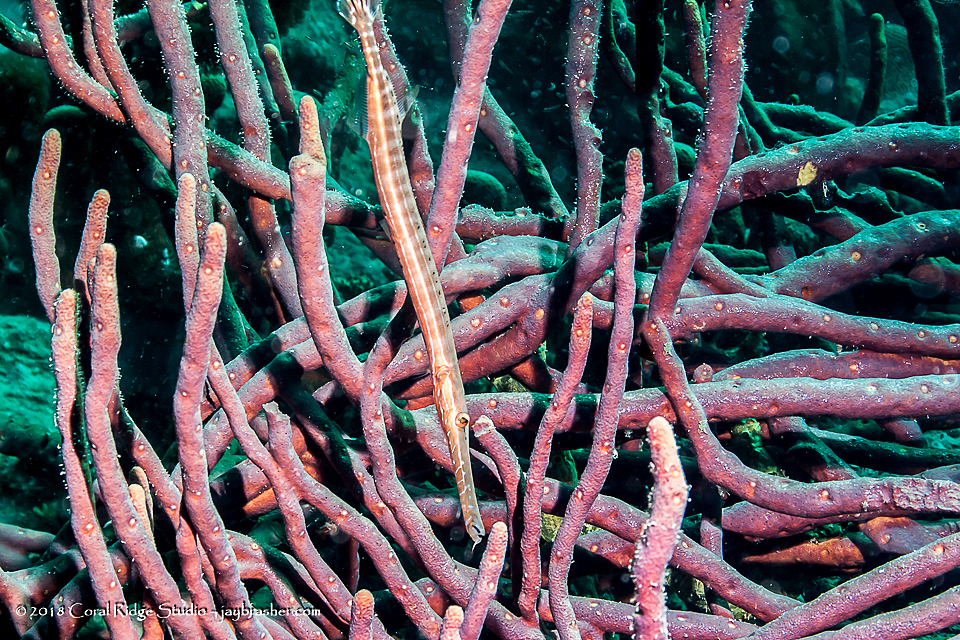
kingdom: Animalia
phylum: Chordata
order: Syngnathiformes
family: Aulostomidae
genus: Aulostomus
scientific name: Aulostomus maculatus
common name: West atlantic trumpetfish
